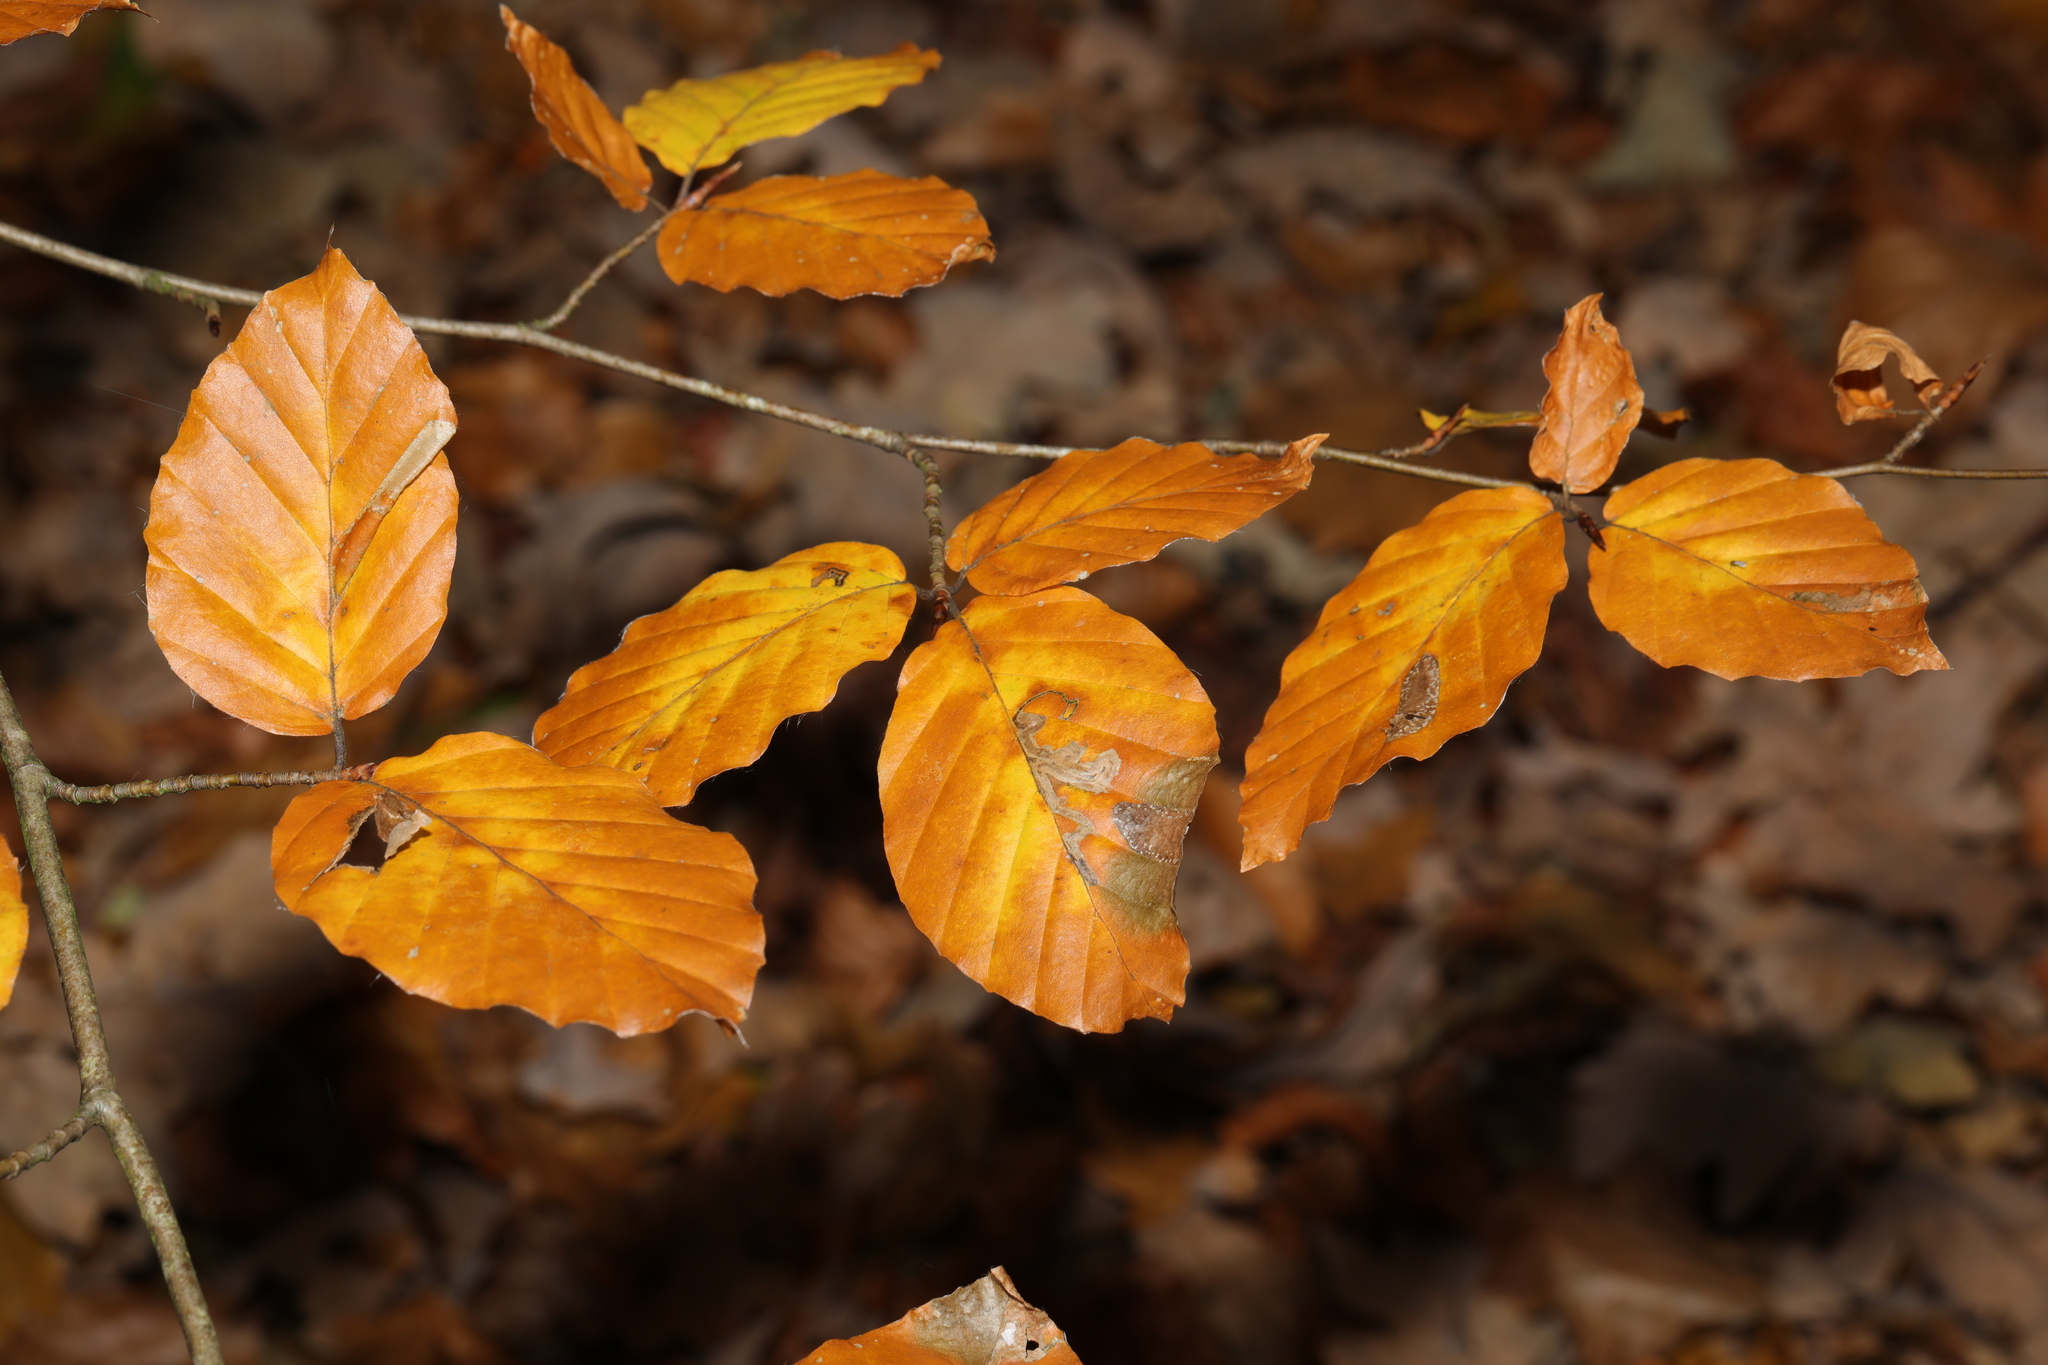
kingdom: Plantae
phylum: Tracheophyta
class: Magnoliopsida
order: Fagales
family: Fagaceae
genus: Fagus
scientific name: Fagus sylvatica
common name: Beech
